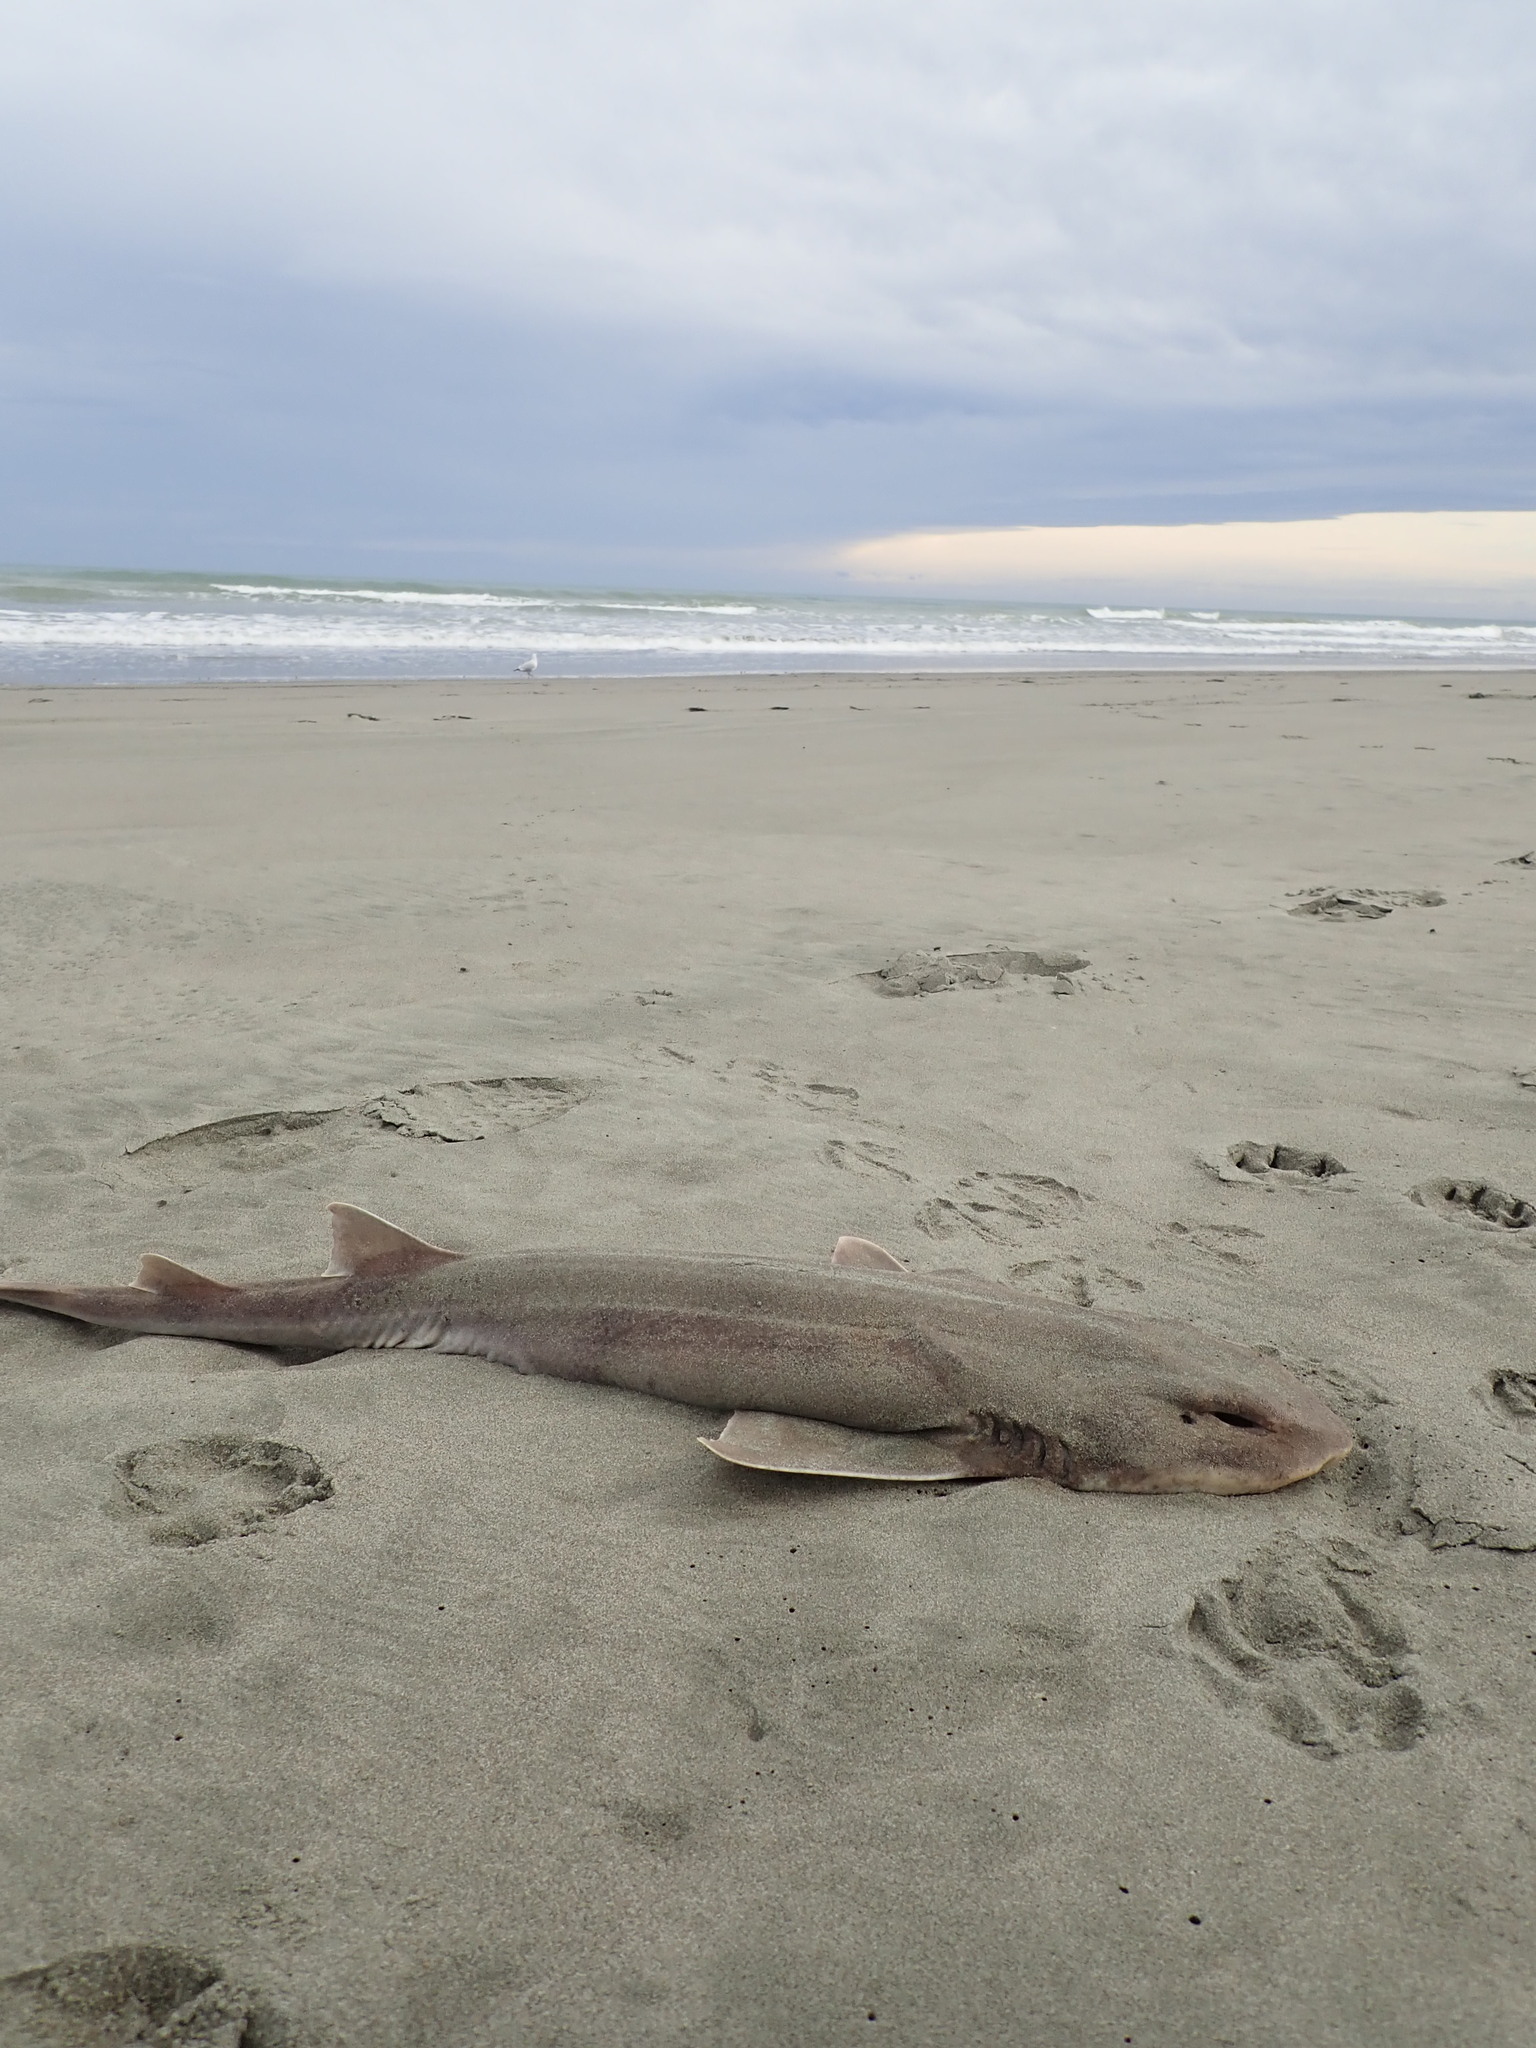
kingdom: Animalia
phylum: Chordata
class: Elasmobranchii
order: Carcharhiniformes
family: Scyliorhinidae
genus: Cephaloscyllium
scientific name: Cephaloscyllium isabellum
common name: Carpet shark
